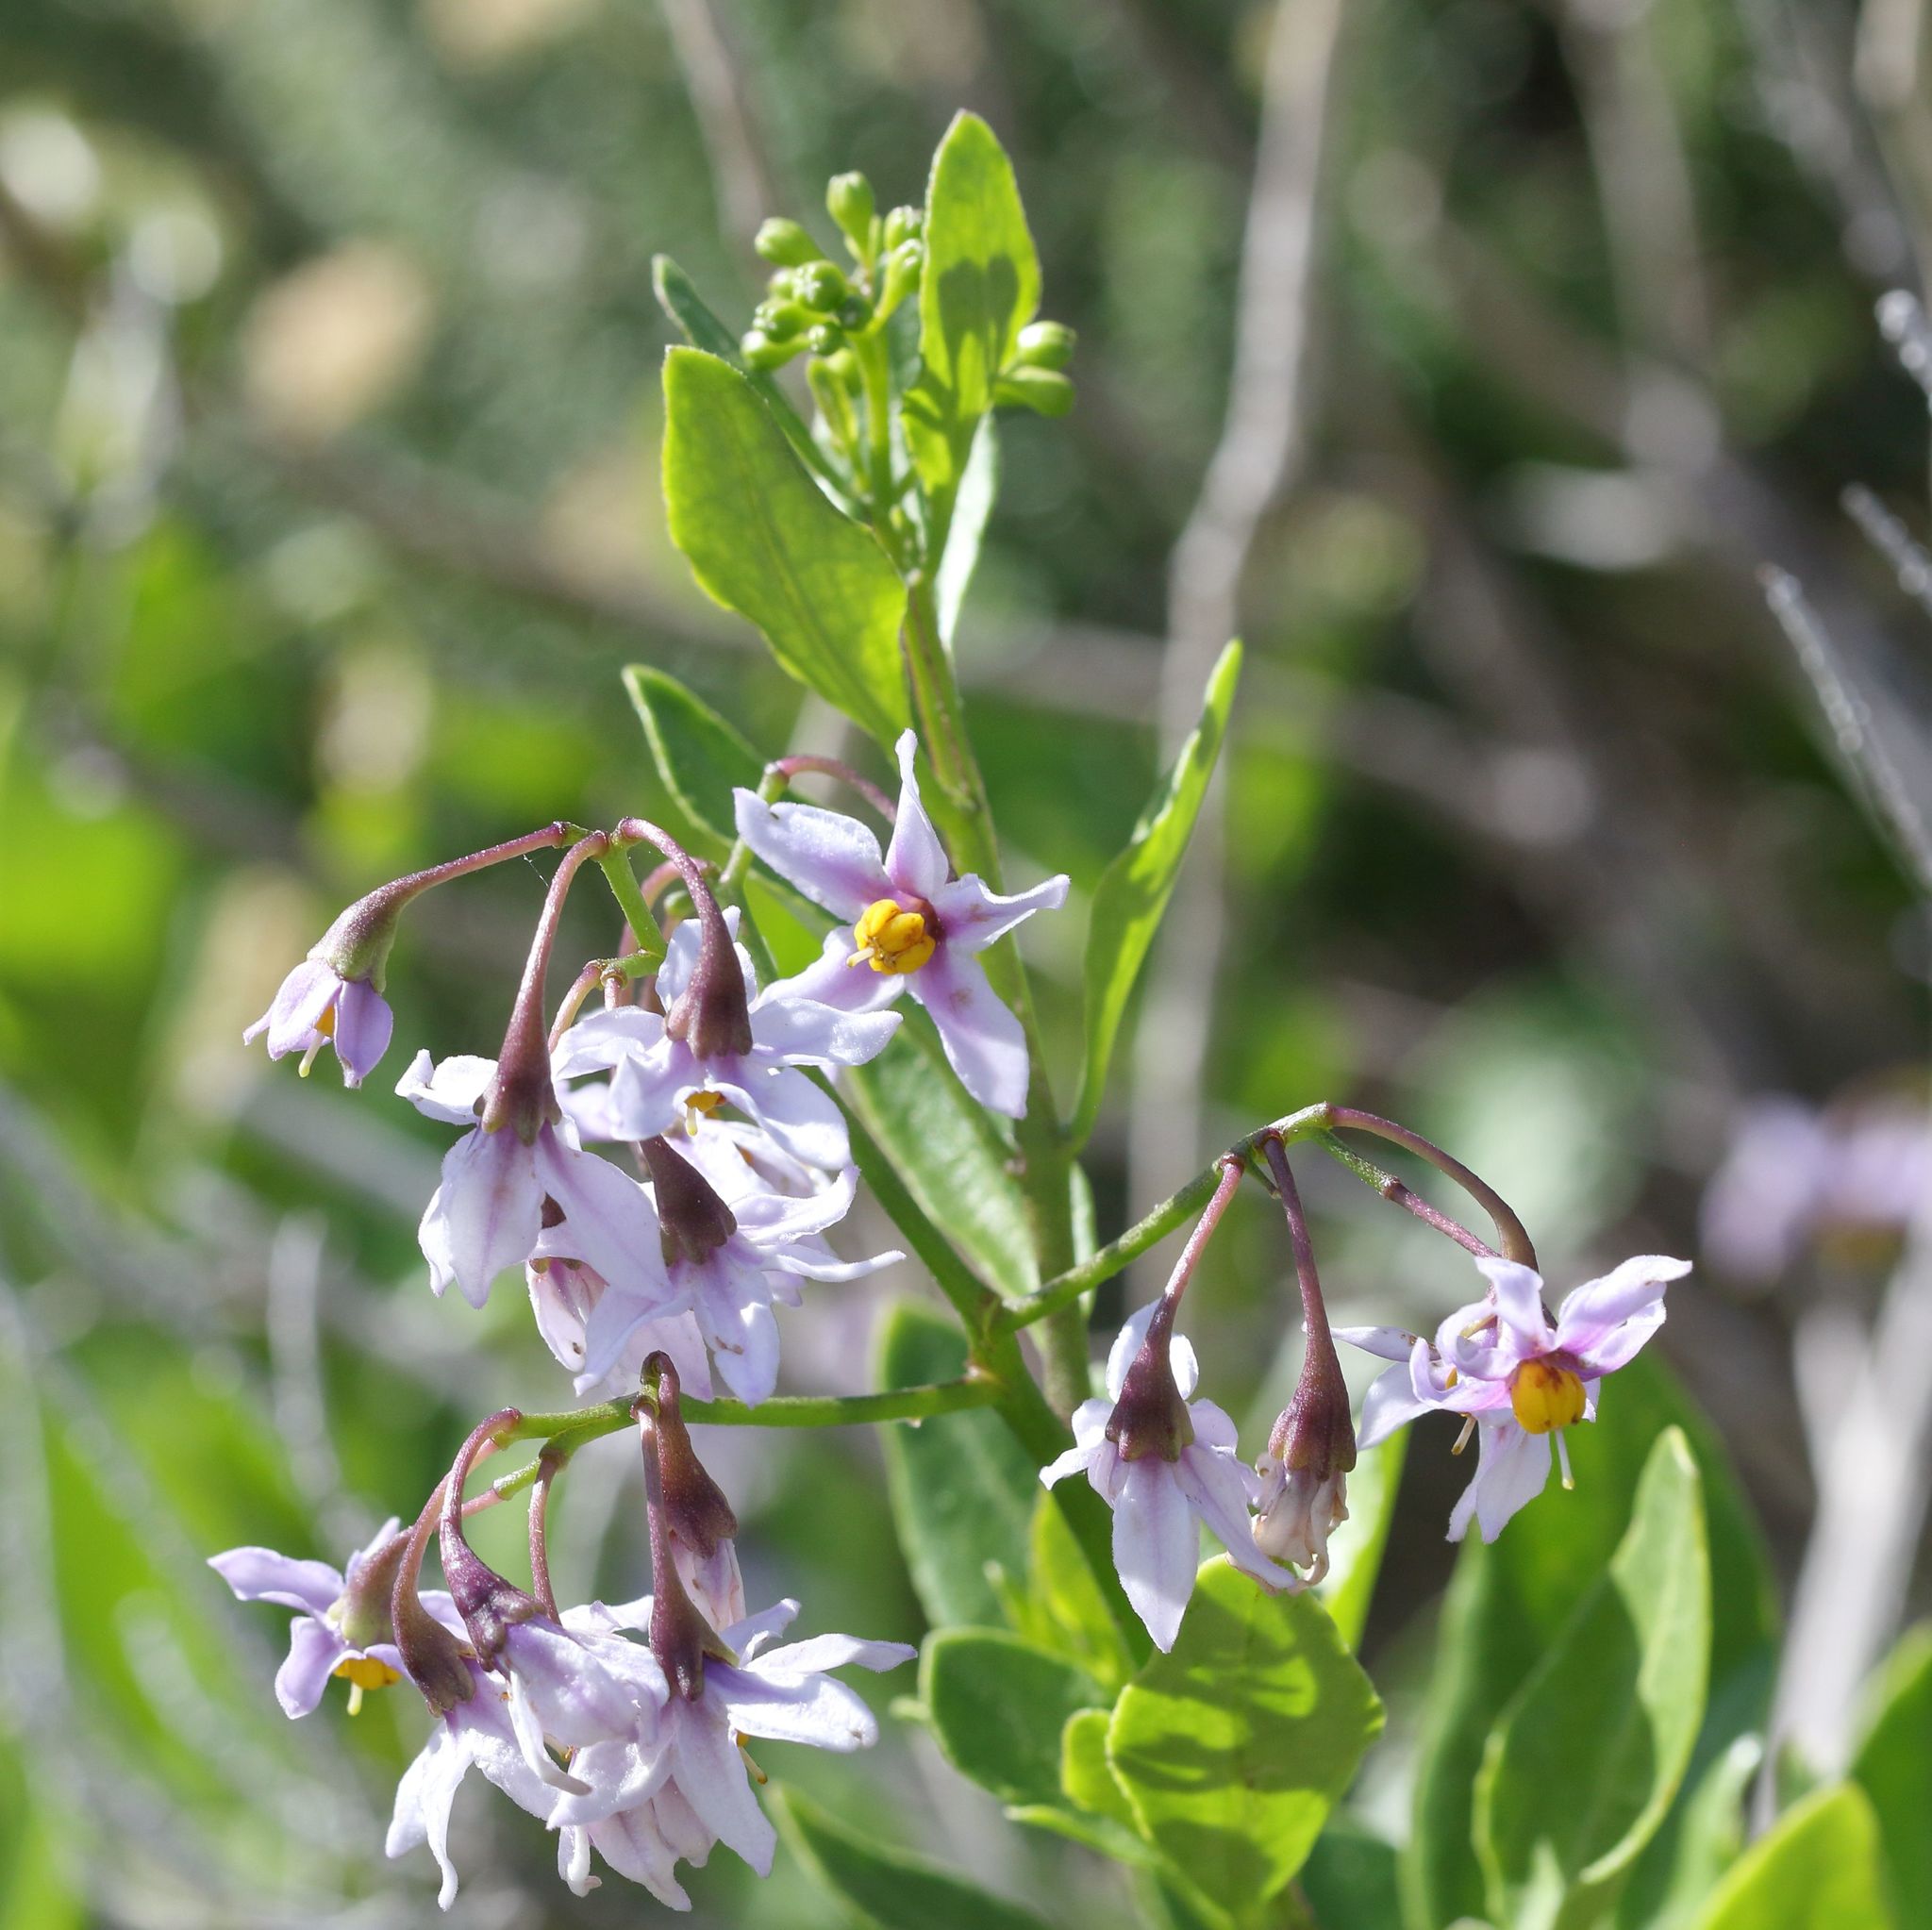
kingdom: Plantae
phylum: Tracheophyta
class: Magnoliopsida
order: Solanales
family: Solanaceae
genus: Solanum
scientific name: Solanum africanum
